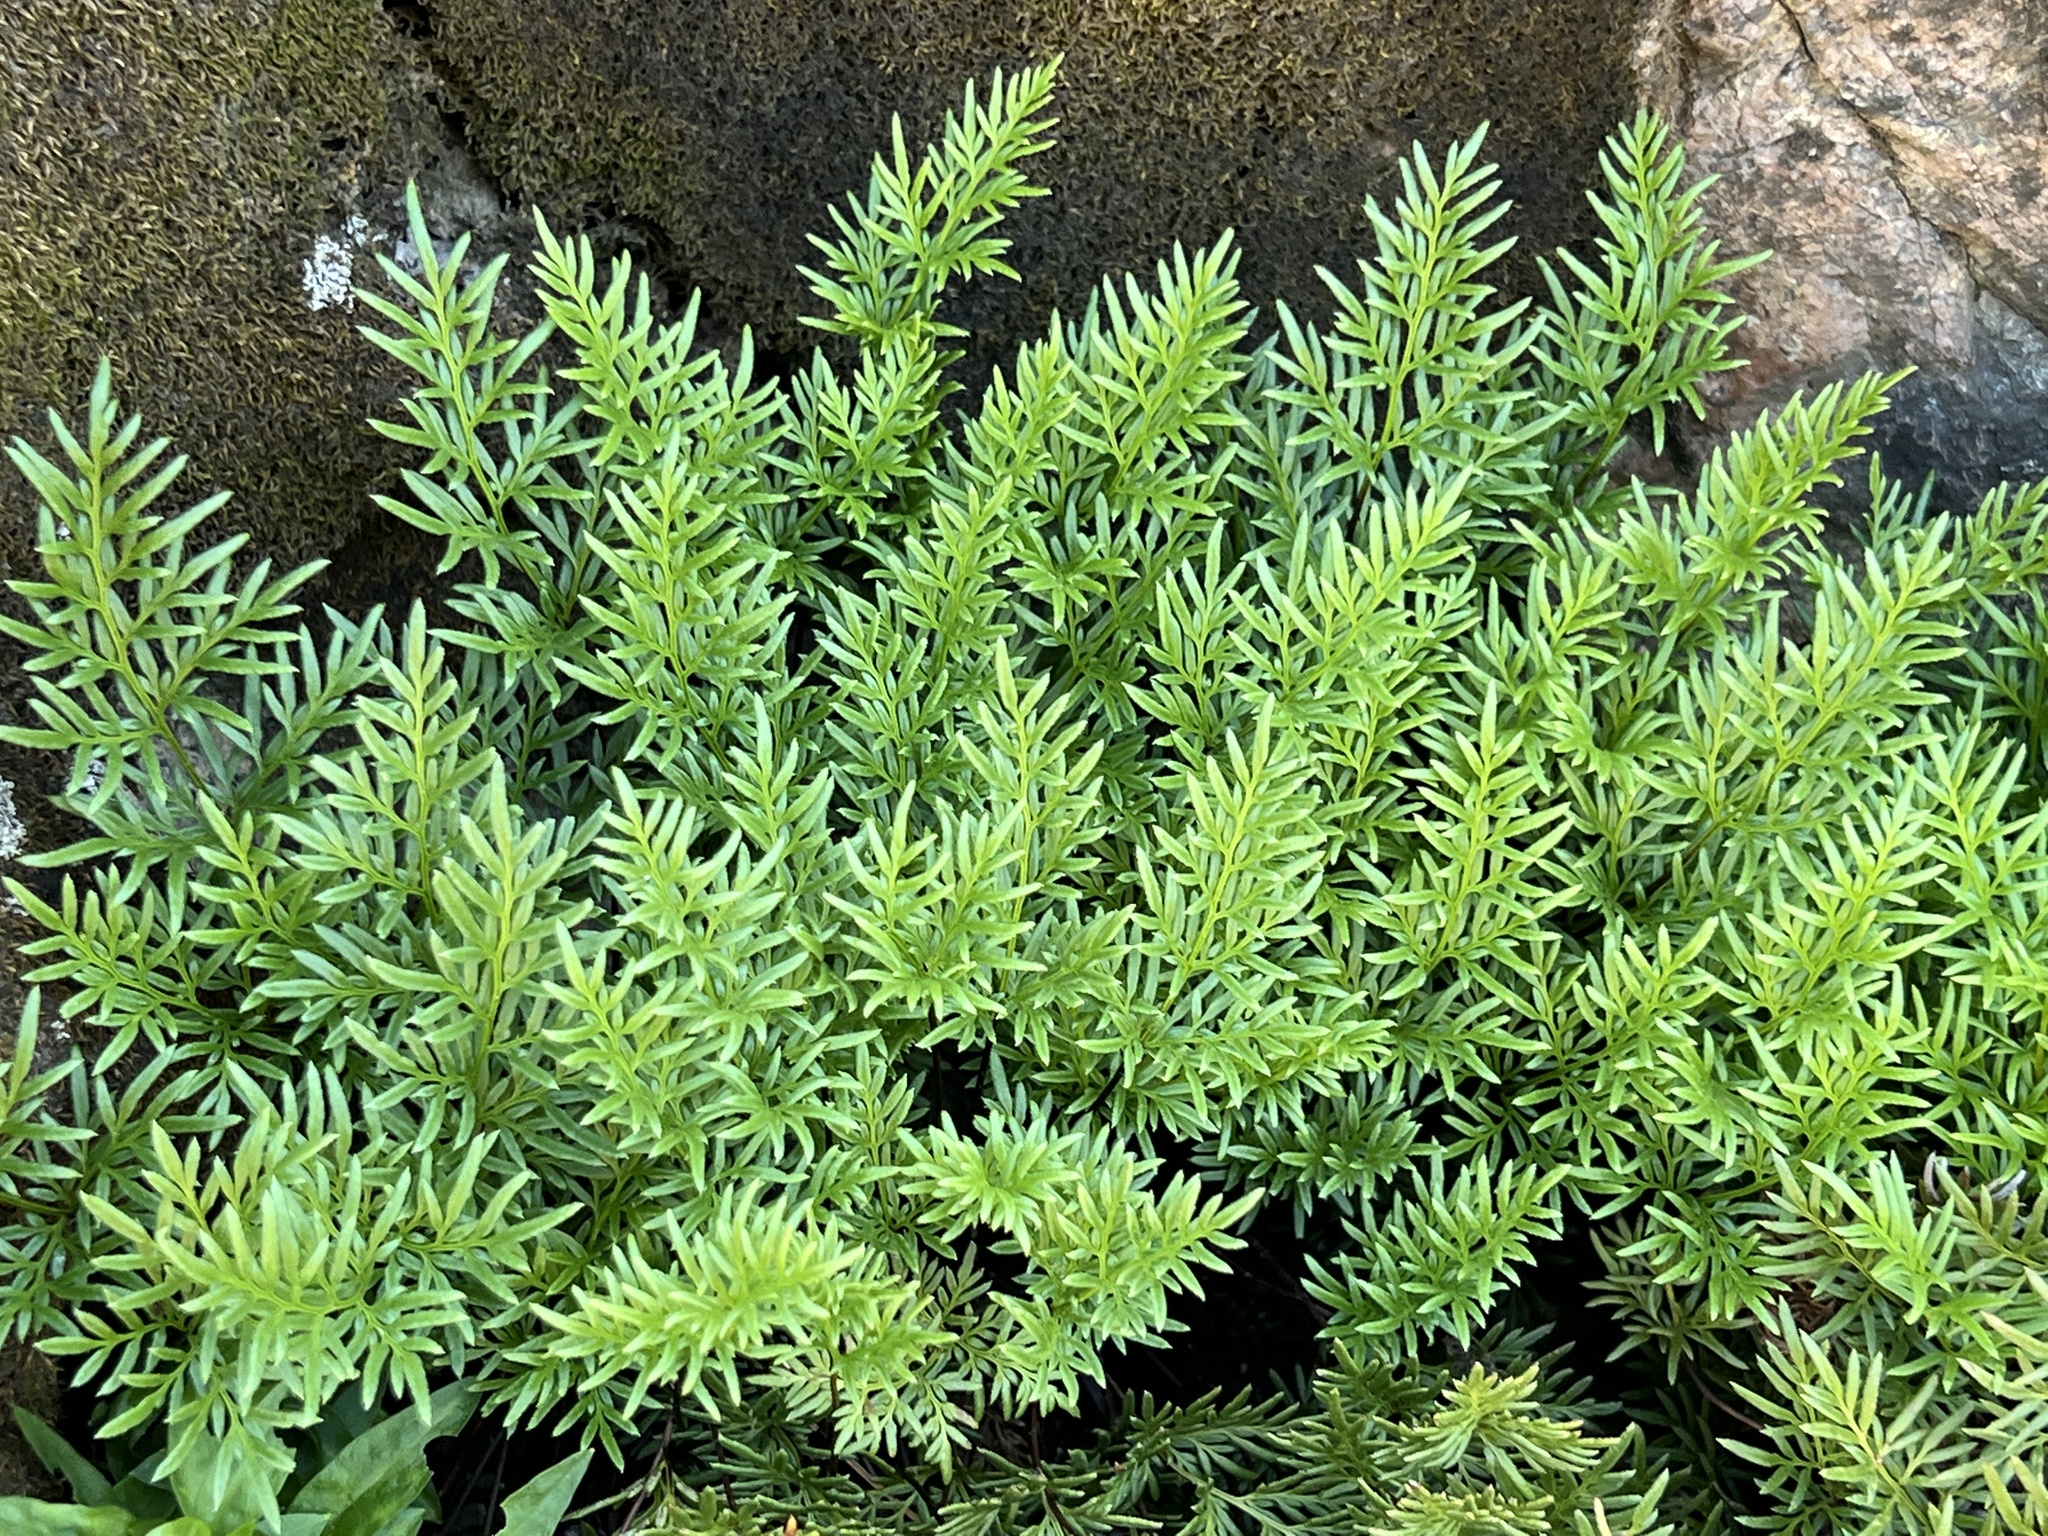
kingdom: Plantae
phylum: Tracheophyta
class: Polypodiopsida
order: Polypodiales
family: Pteridaceae
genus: Aspidotis
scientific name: Aspidotis densa
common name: Indian's dream
